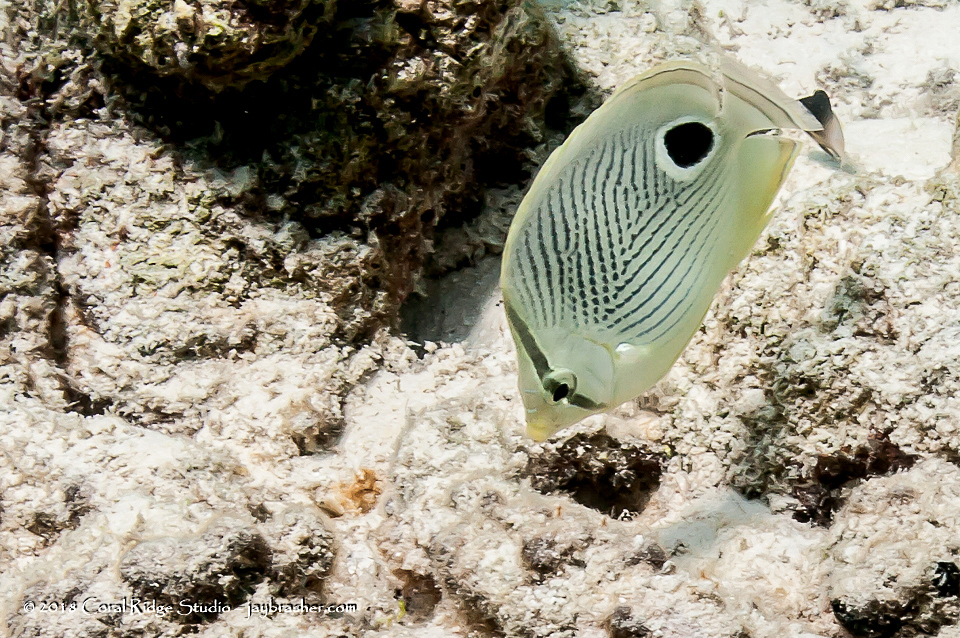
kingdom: Animalia
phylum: Chordata
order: Perciformes
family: Chaetodontidae
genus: Chaetodon
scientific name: Chaetodon capistratus
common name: Kete
